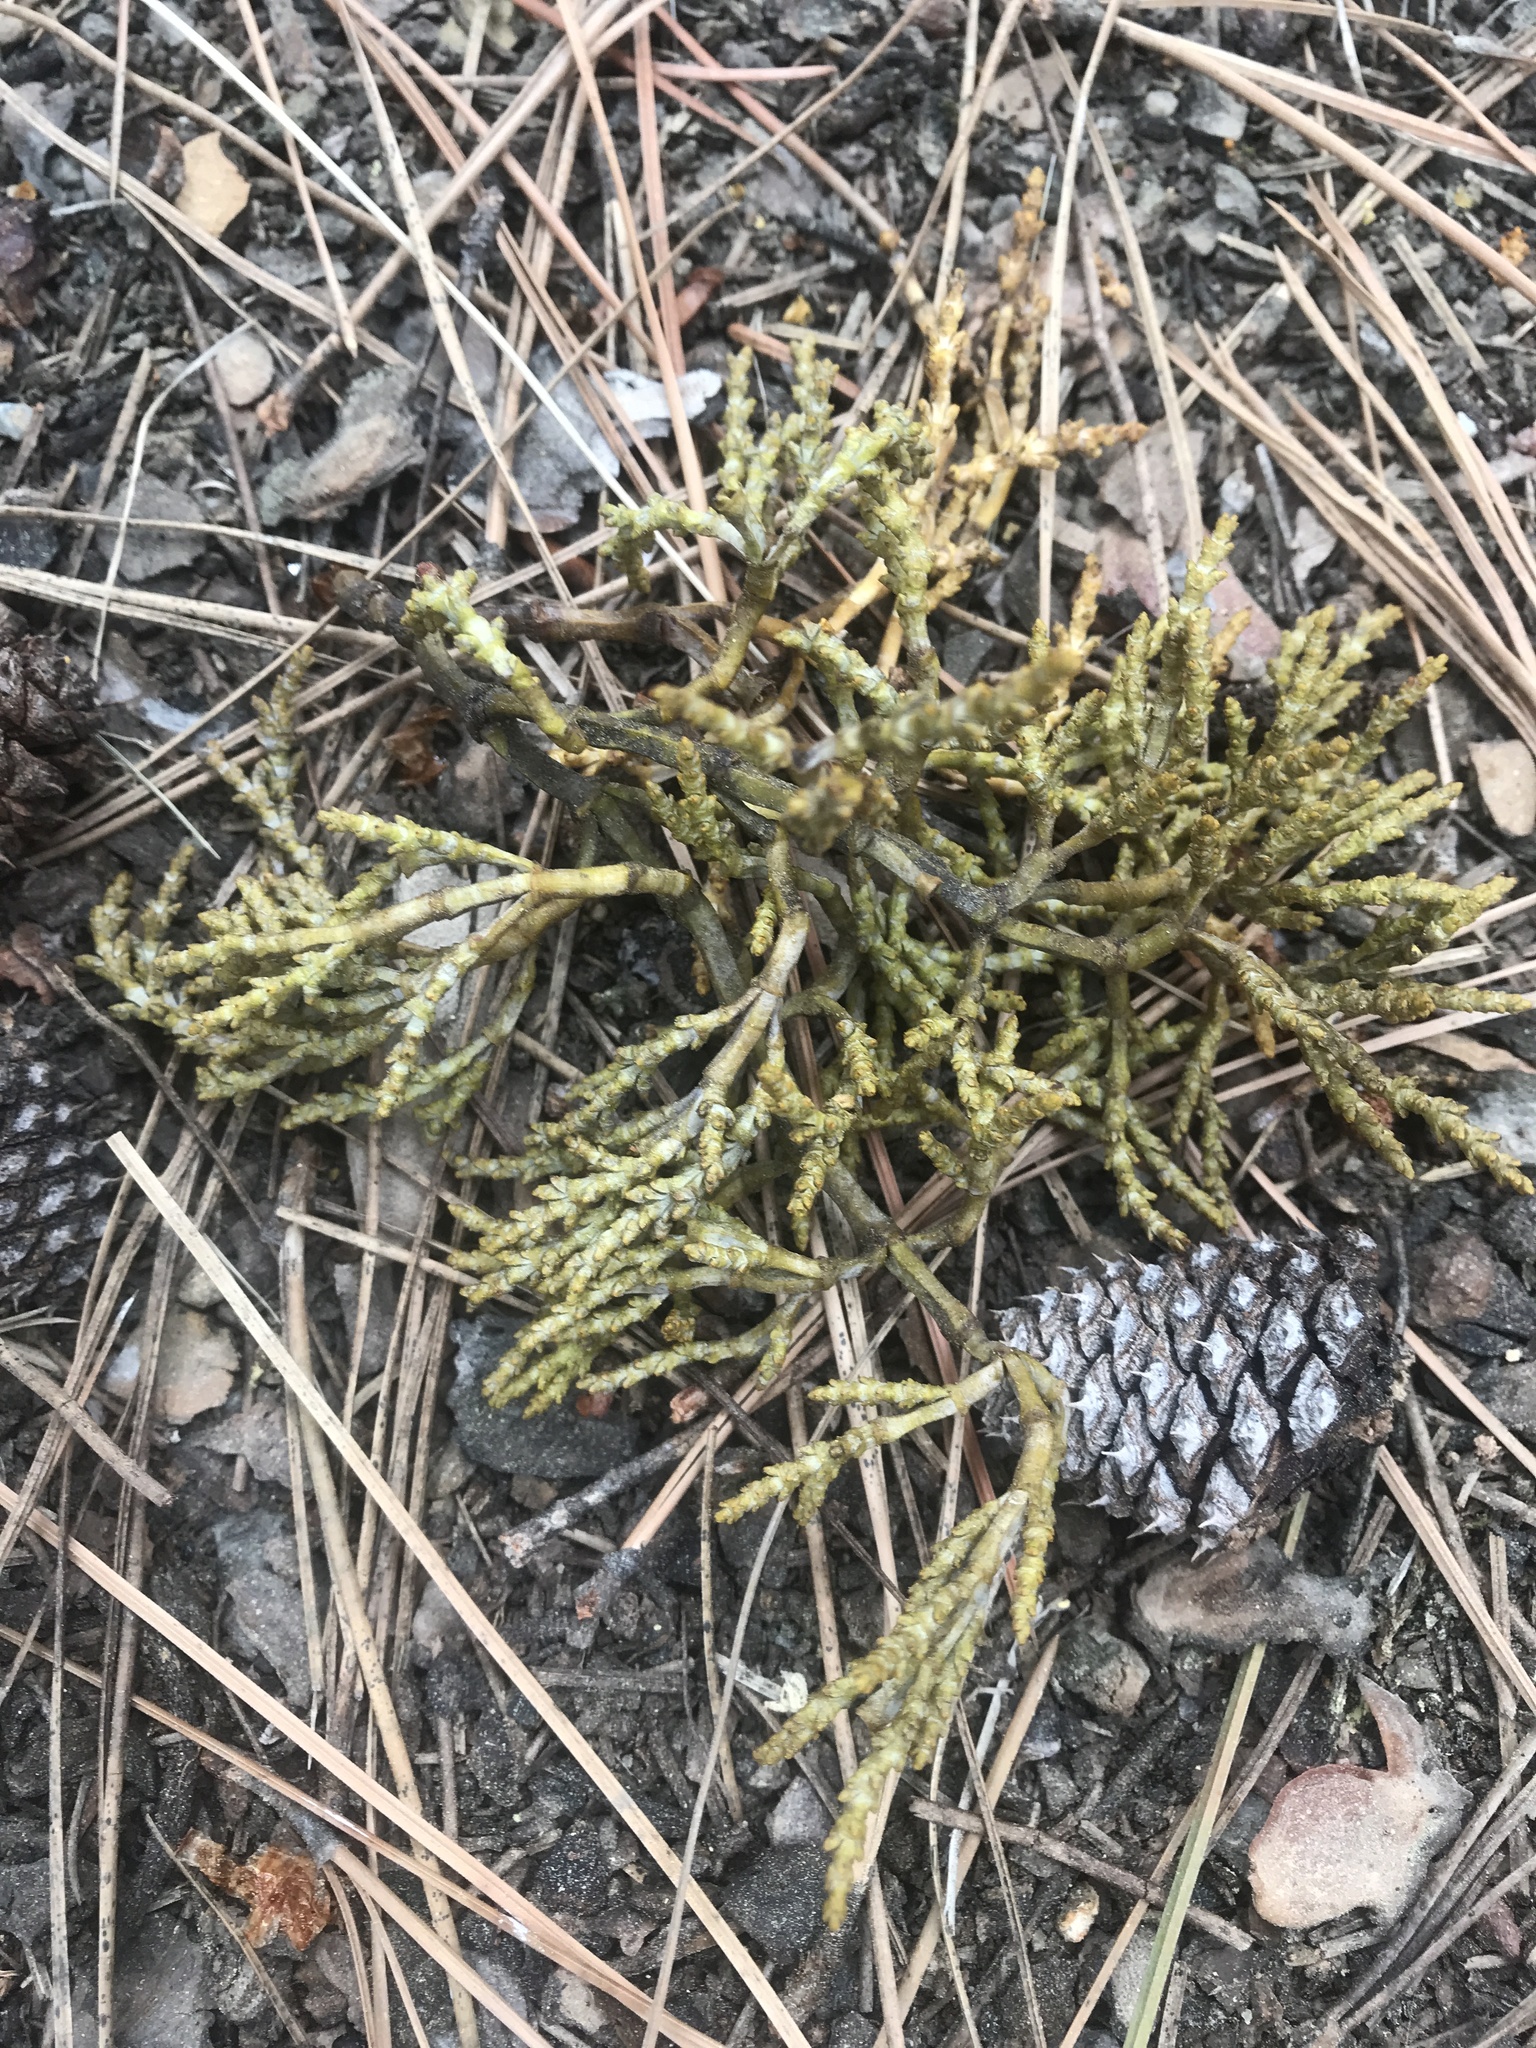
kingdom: Plantae
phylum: Tracheophyta
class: Magnoliopsida
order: Santalales
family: Viscaceae
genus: Arceuthobium
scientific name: Arceuthobium campylopodum
